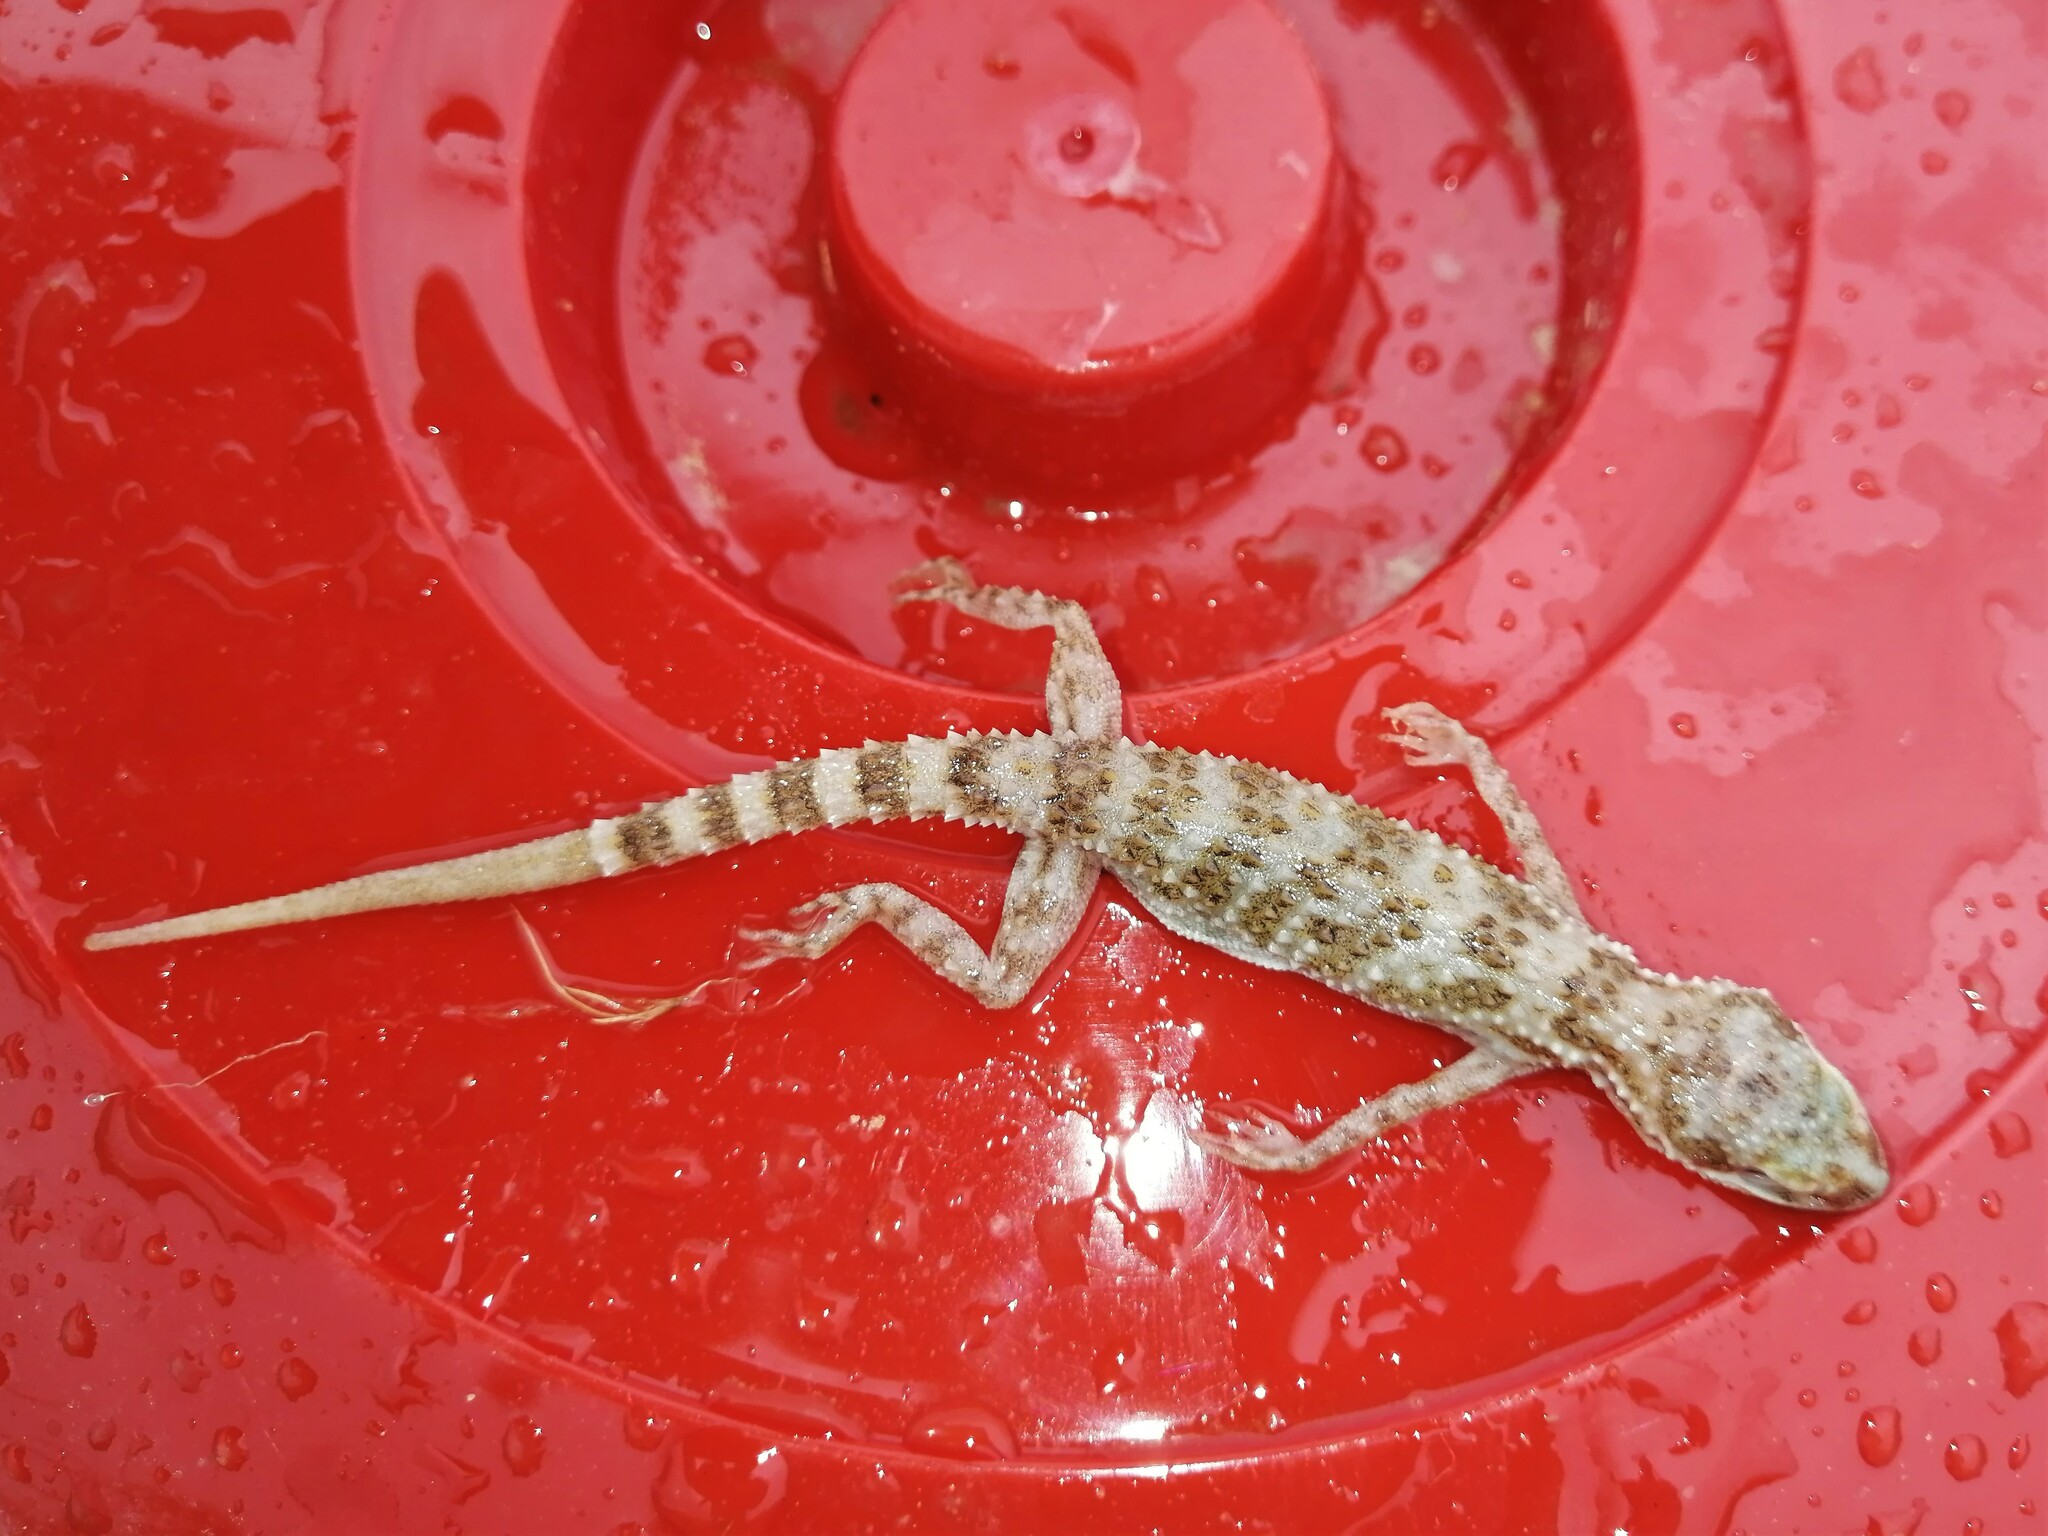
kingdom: Animalia
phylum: Chordata
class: Squamata
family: Gekkonidae
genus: Bunopus
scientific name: Bunopus tuberculatus
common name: Southern tuberculated gecko
